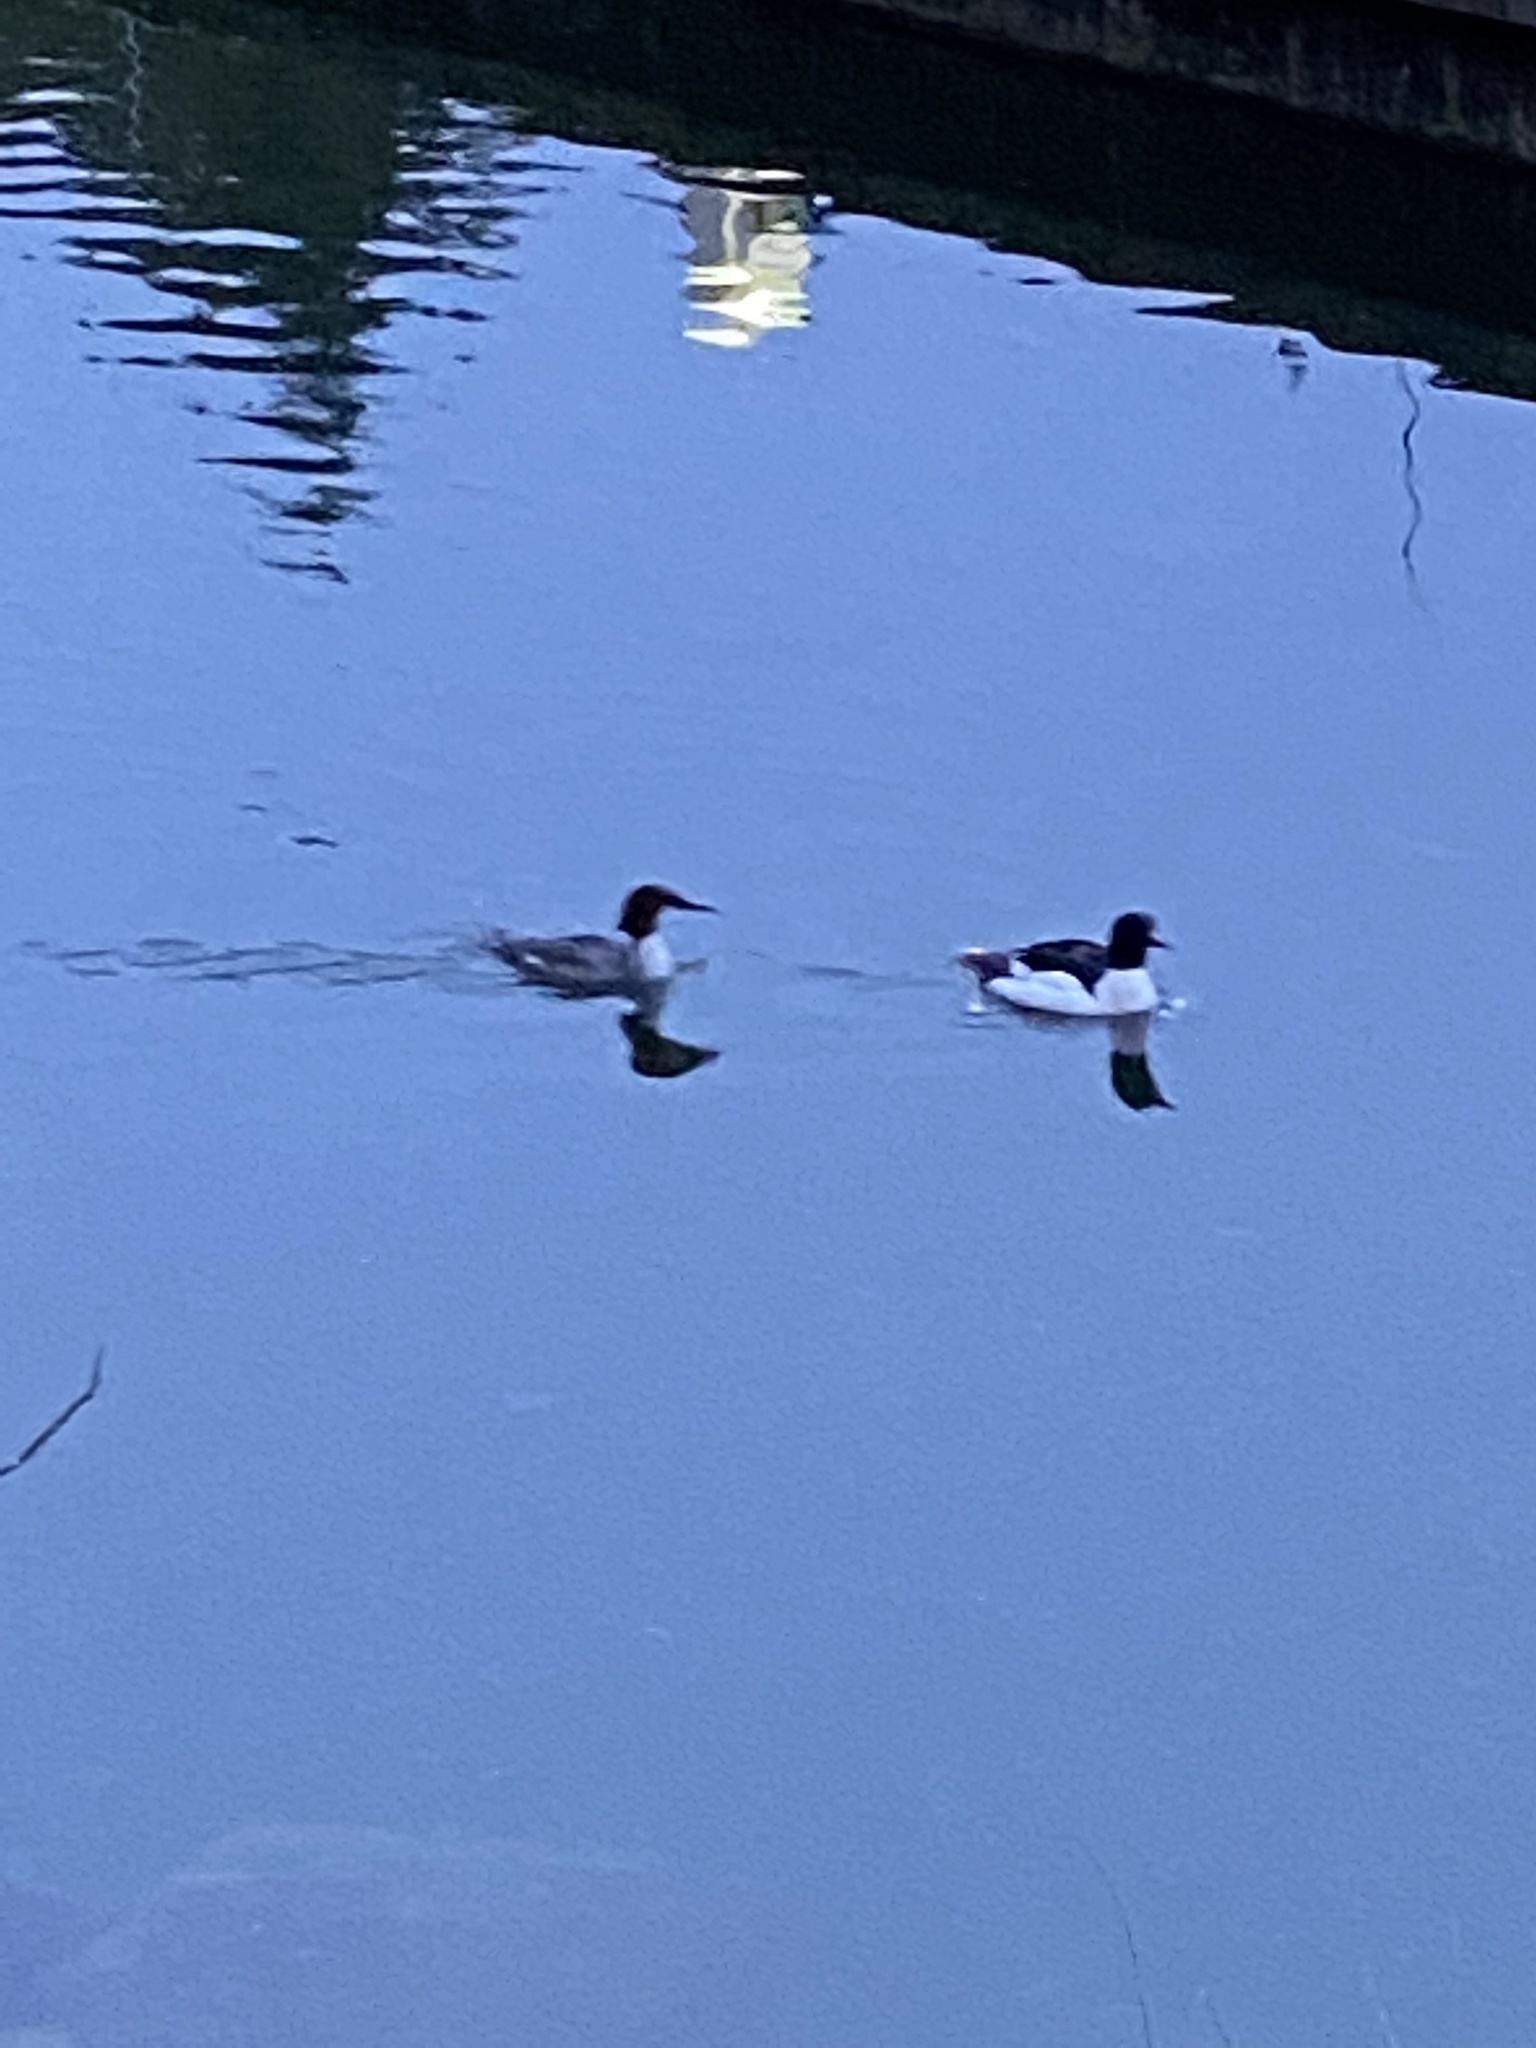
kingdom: Animalia
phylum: Chordata
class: Aves
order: Anseriformes
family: Anatidae
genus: Mergus
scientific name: Mergus merganser
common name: Common merganser
